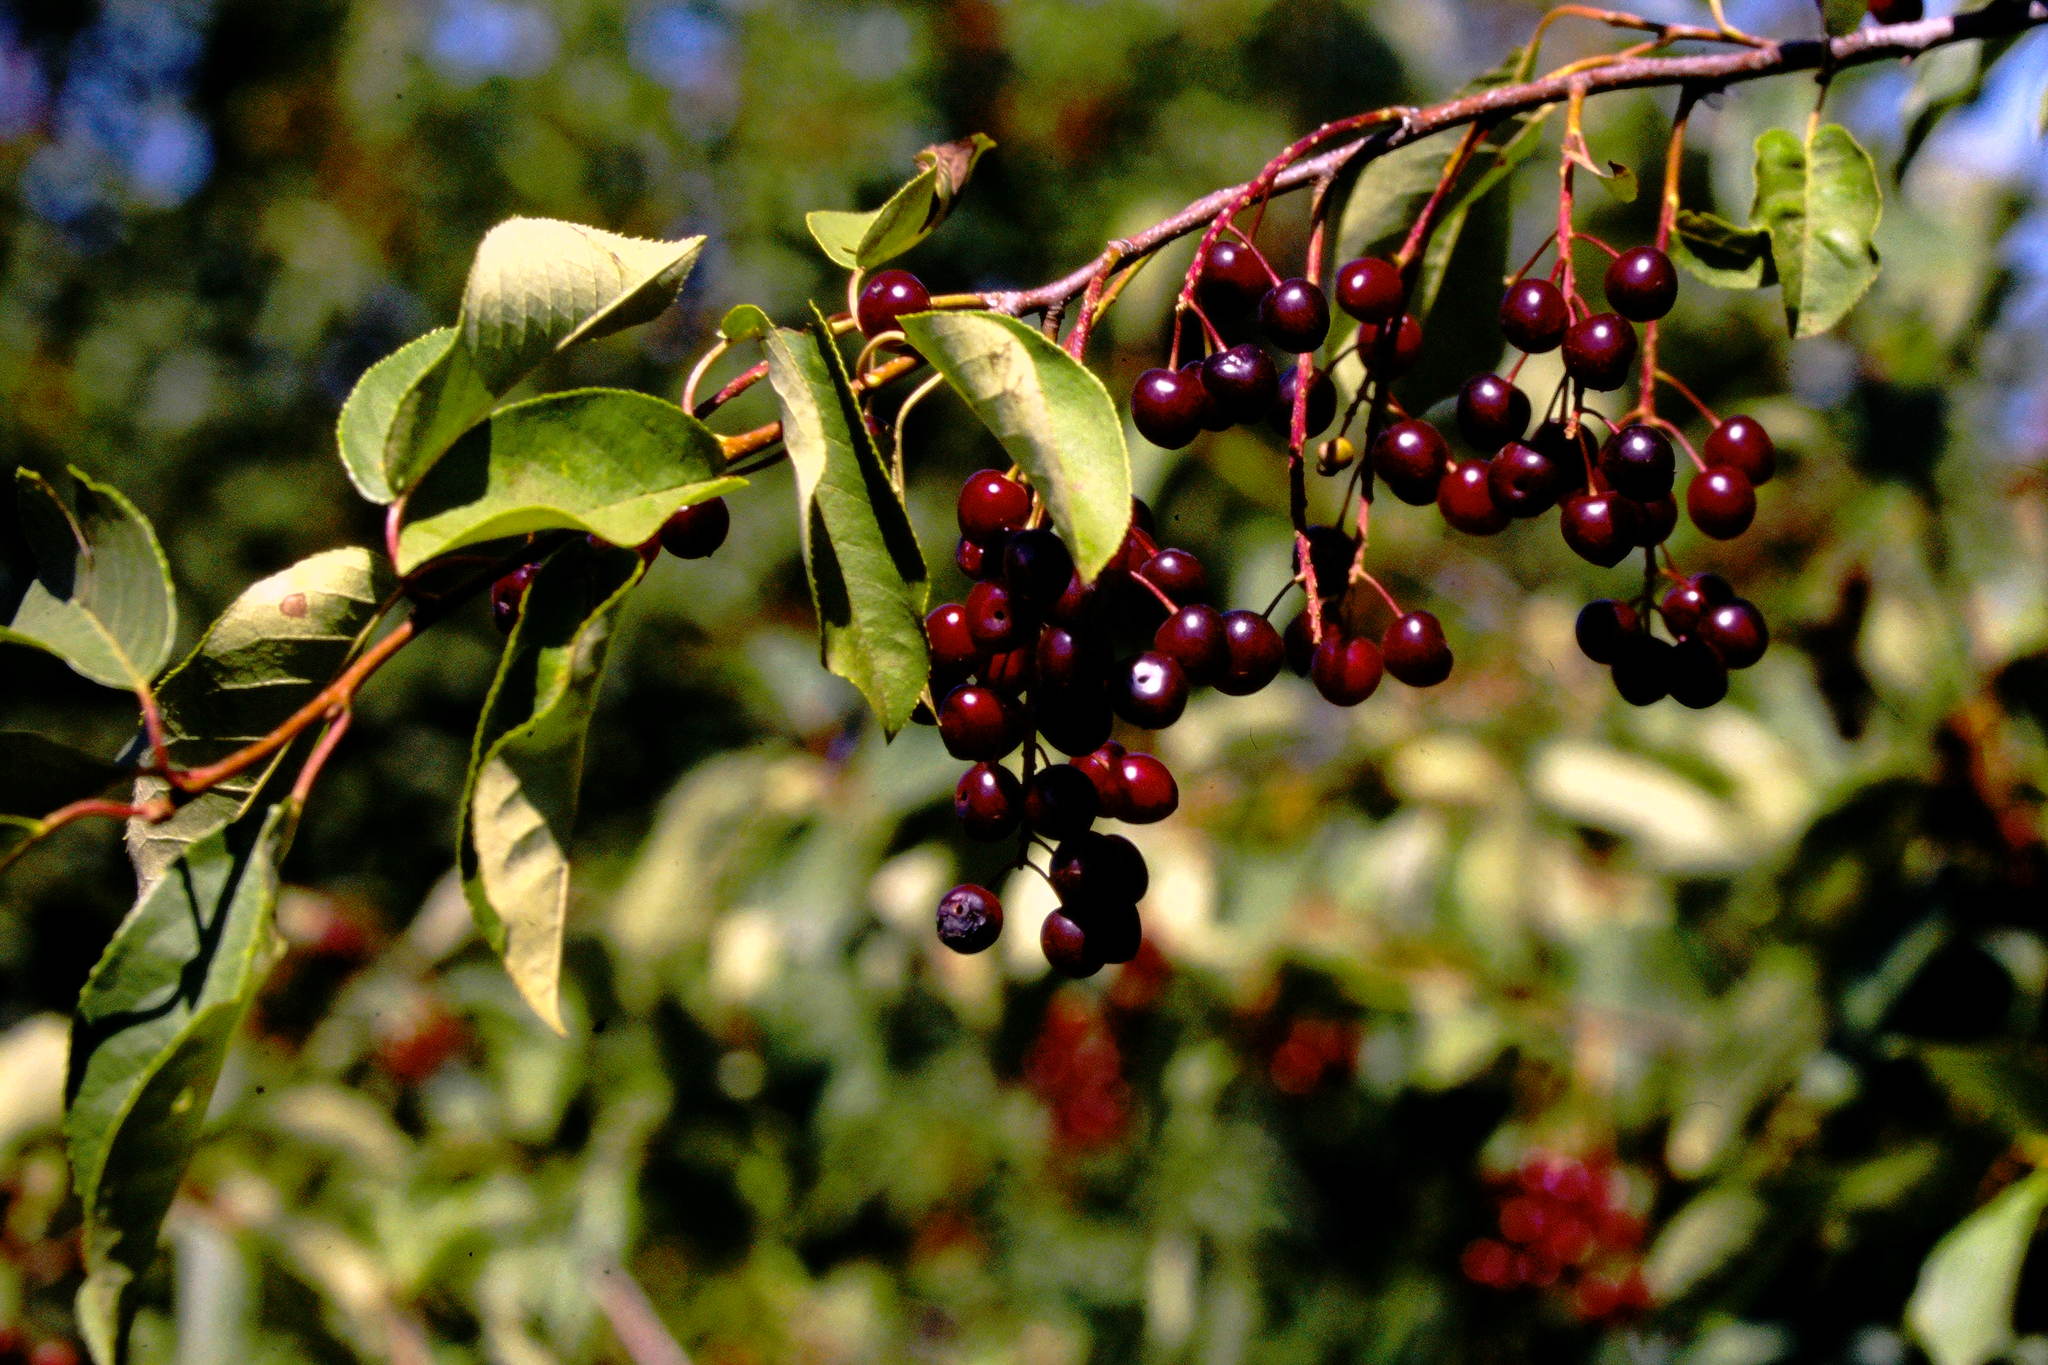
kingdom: Plantae
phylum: Tracheophyta
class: Magnoliopsida
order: Rosales
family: Rosaceae
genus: Prunus
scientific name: Prunus virginiana
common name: Chokecherry
